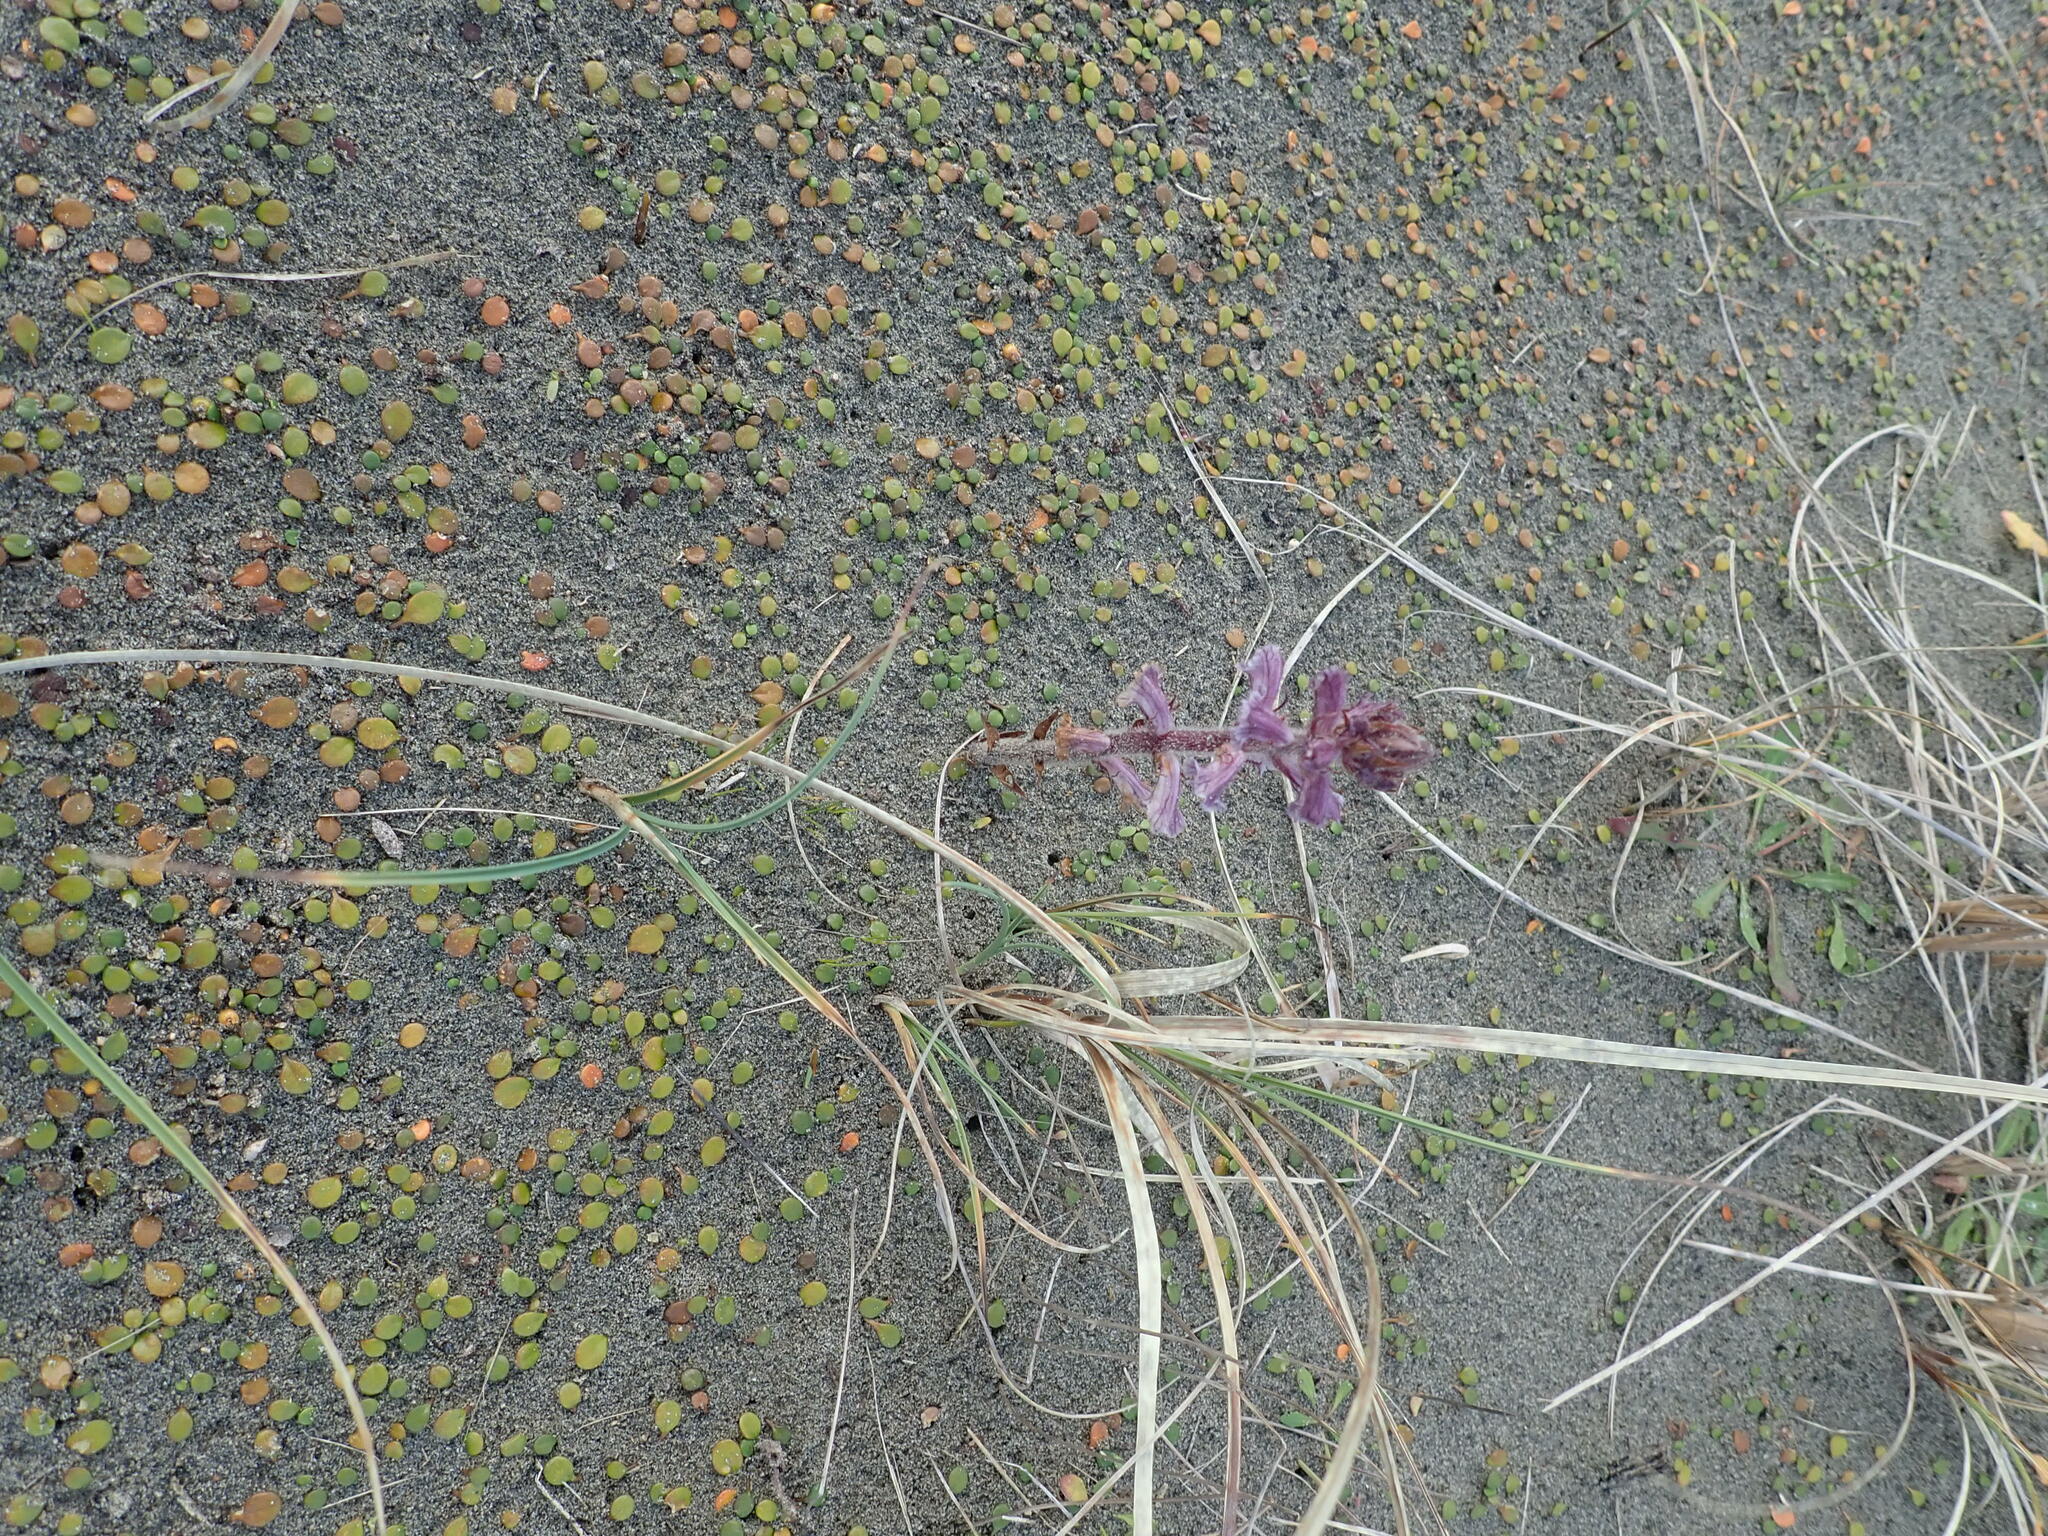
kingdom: Plantae
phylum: Tracheophyta
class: Magnoliopsida
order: Lamiales
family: Orobanchaceae
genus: Orobanche
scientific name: Orobanche minor
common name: Common broomrape
